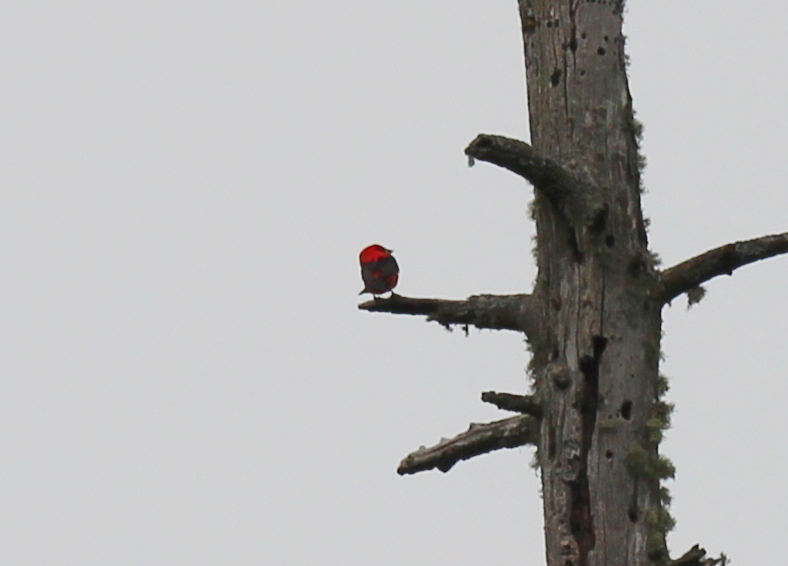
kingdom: Animalia
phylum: Chordata
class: Aves
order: Passeriformes
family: Cardinalidae
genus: Piranga
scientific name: Piranga olivacea
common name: Scarlet tanager
